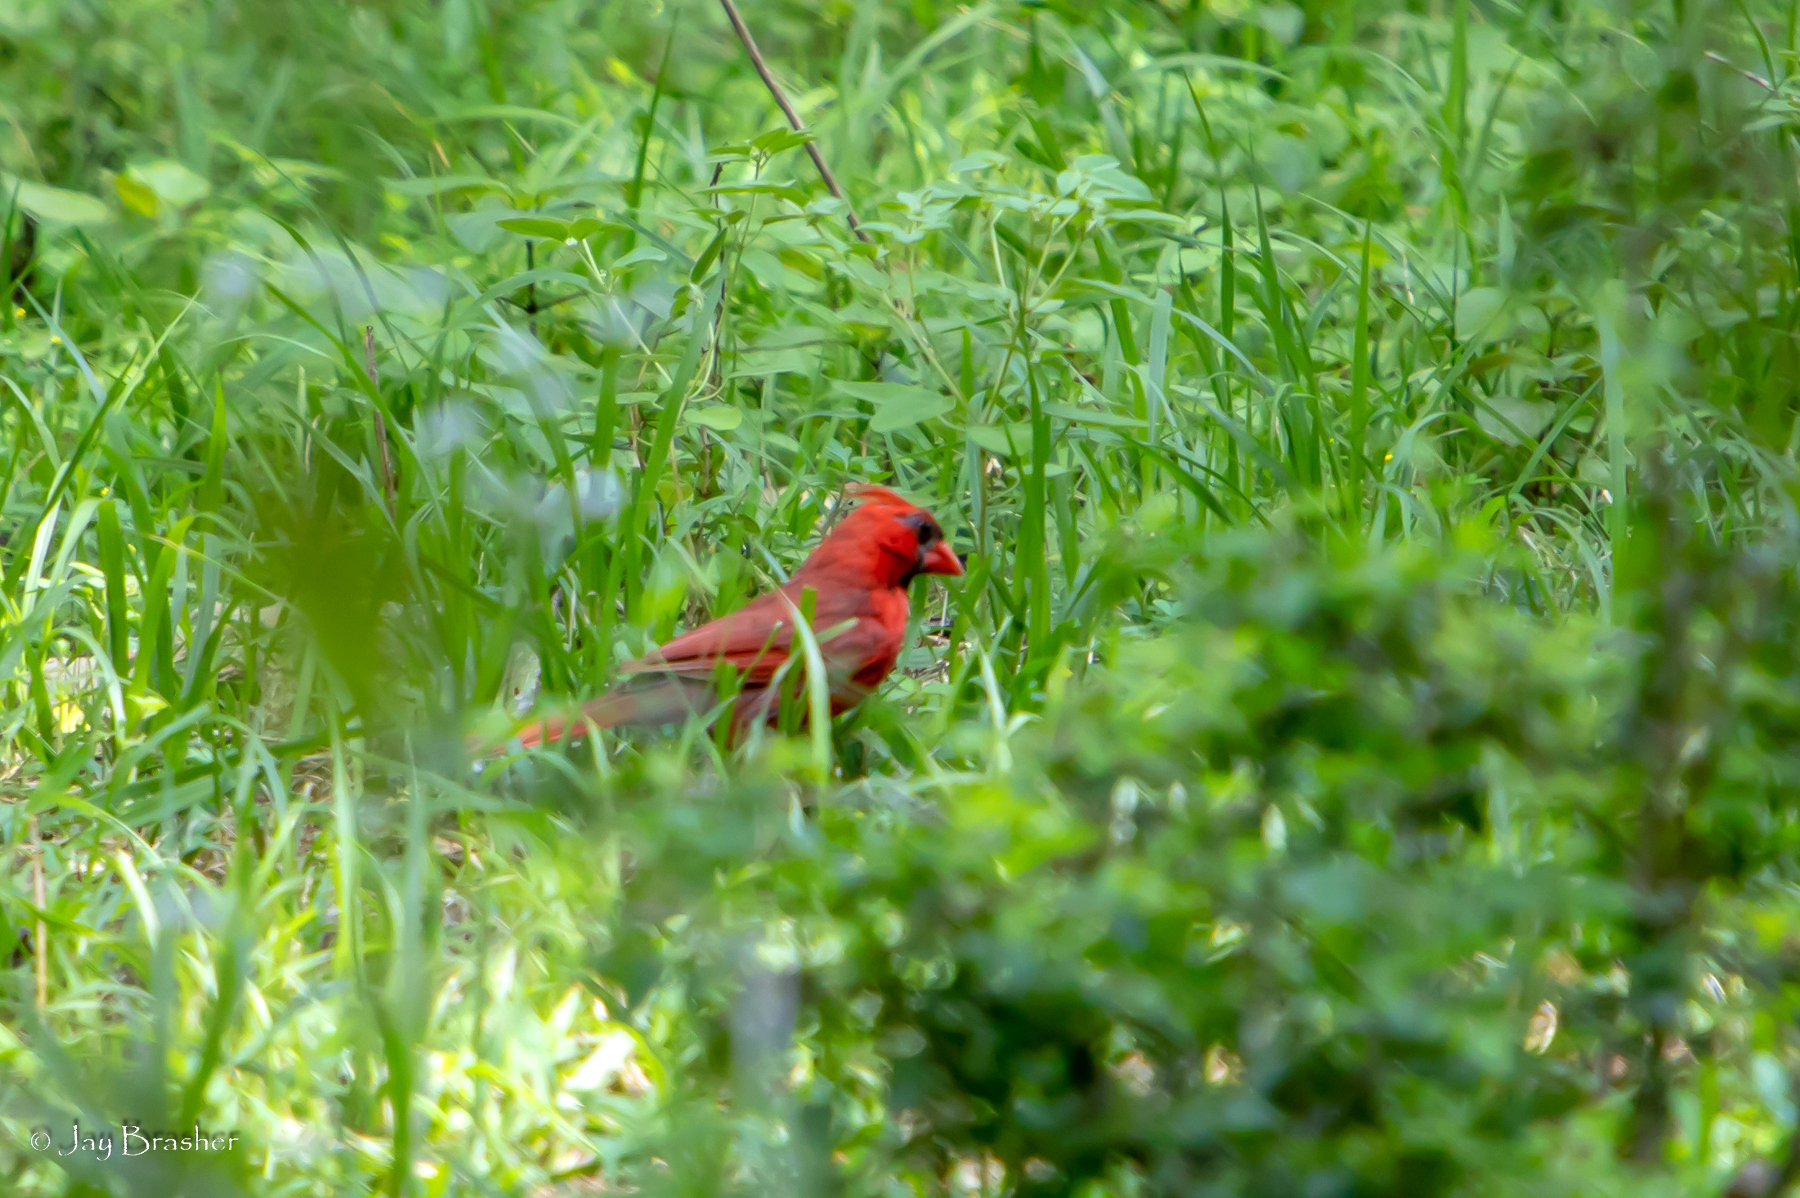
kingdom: Animalia
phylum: Chordata
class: Aves
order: Passeriformes
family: Cardinalidae
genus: Cardinalis
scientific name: Cardinalis cardinalis
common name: Northern cardinal
